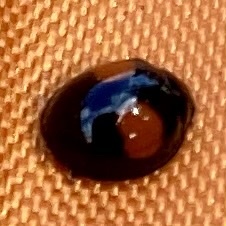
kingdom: Animalia
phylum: Arthropoda
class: Insecta
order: Coleoptera
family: Coccinellidae
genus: Chilocorus
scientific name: Chilocorus cacti
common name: Cactus lady beetle
